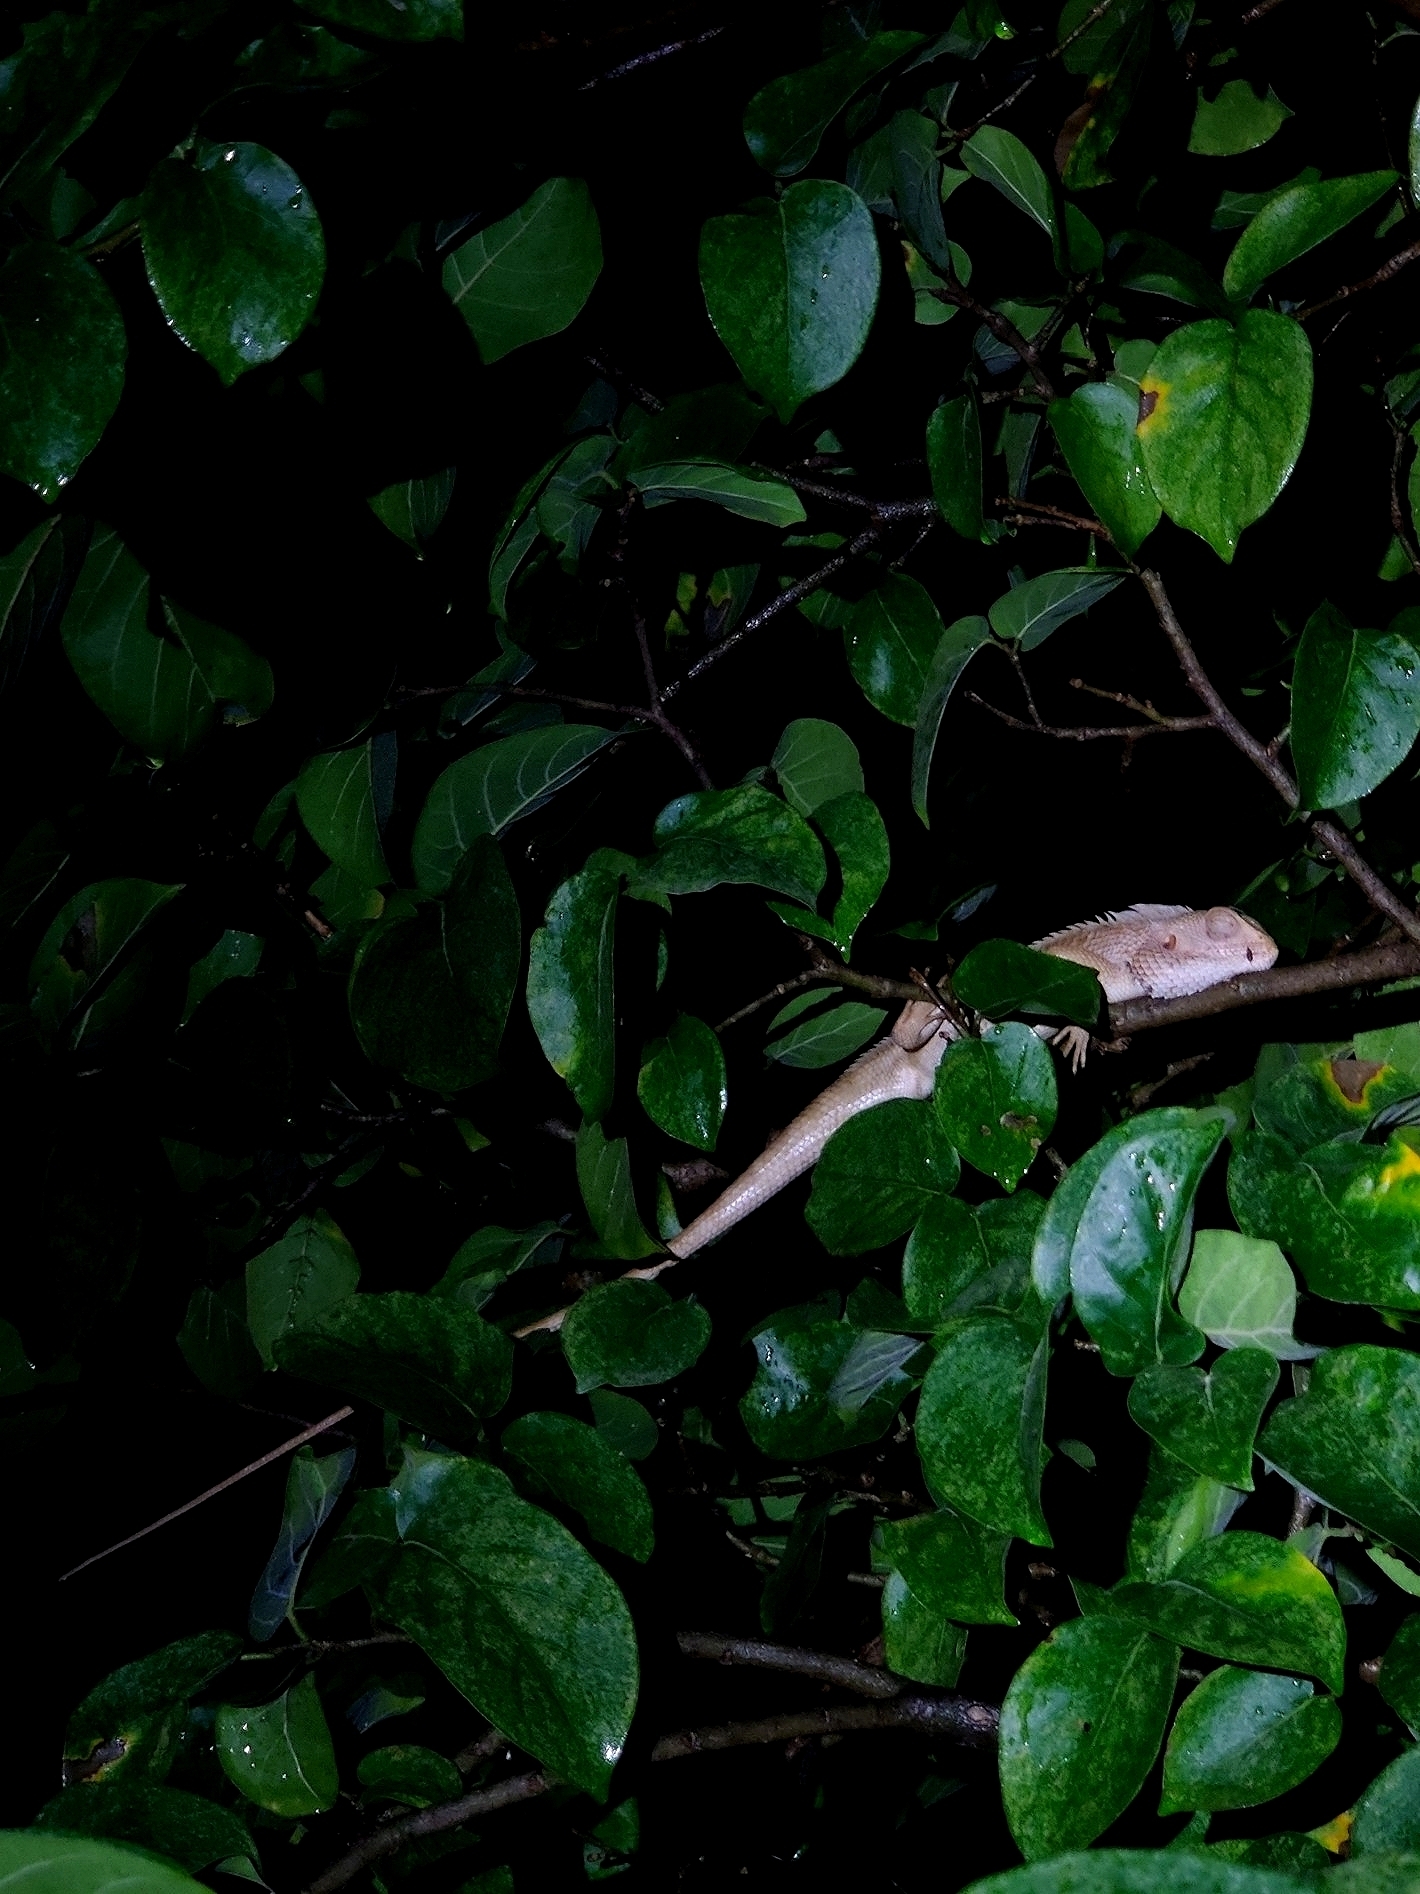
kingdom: Animalia
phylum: Chordata
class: Squamata
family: Agamidae
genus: Calotes
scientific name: Calotes versicolor
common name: Oriental garden lizard
